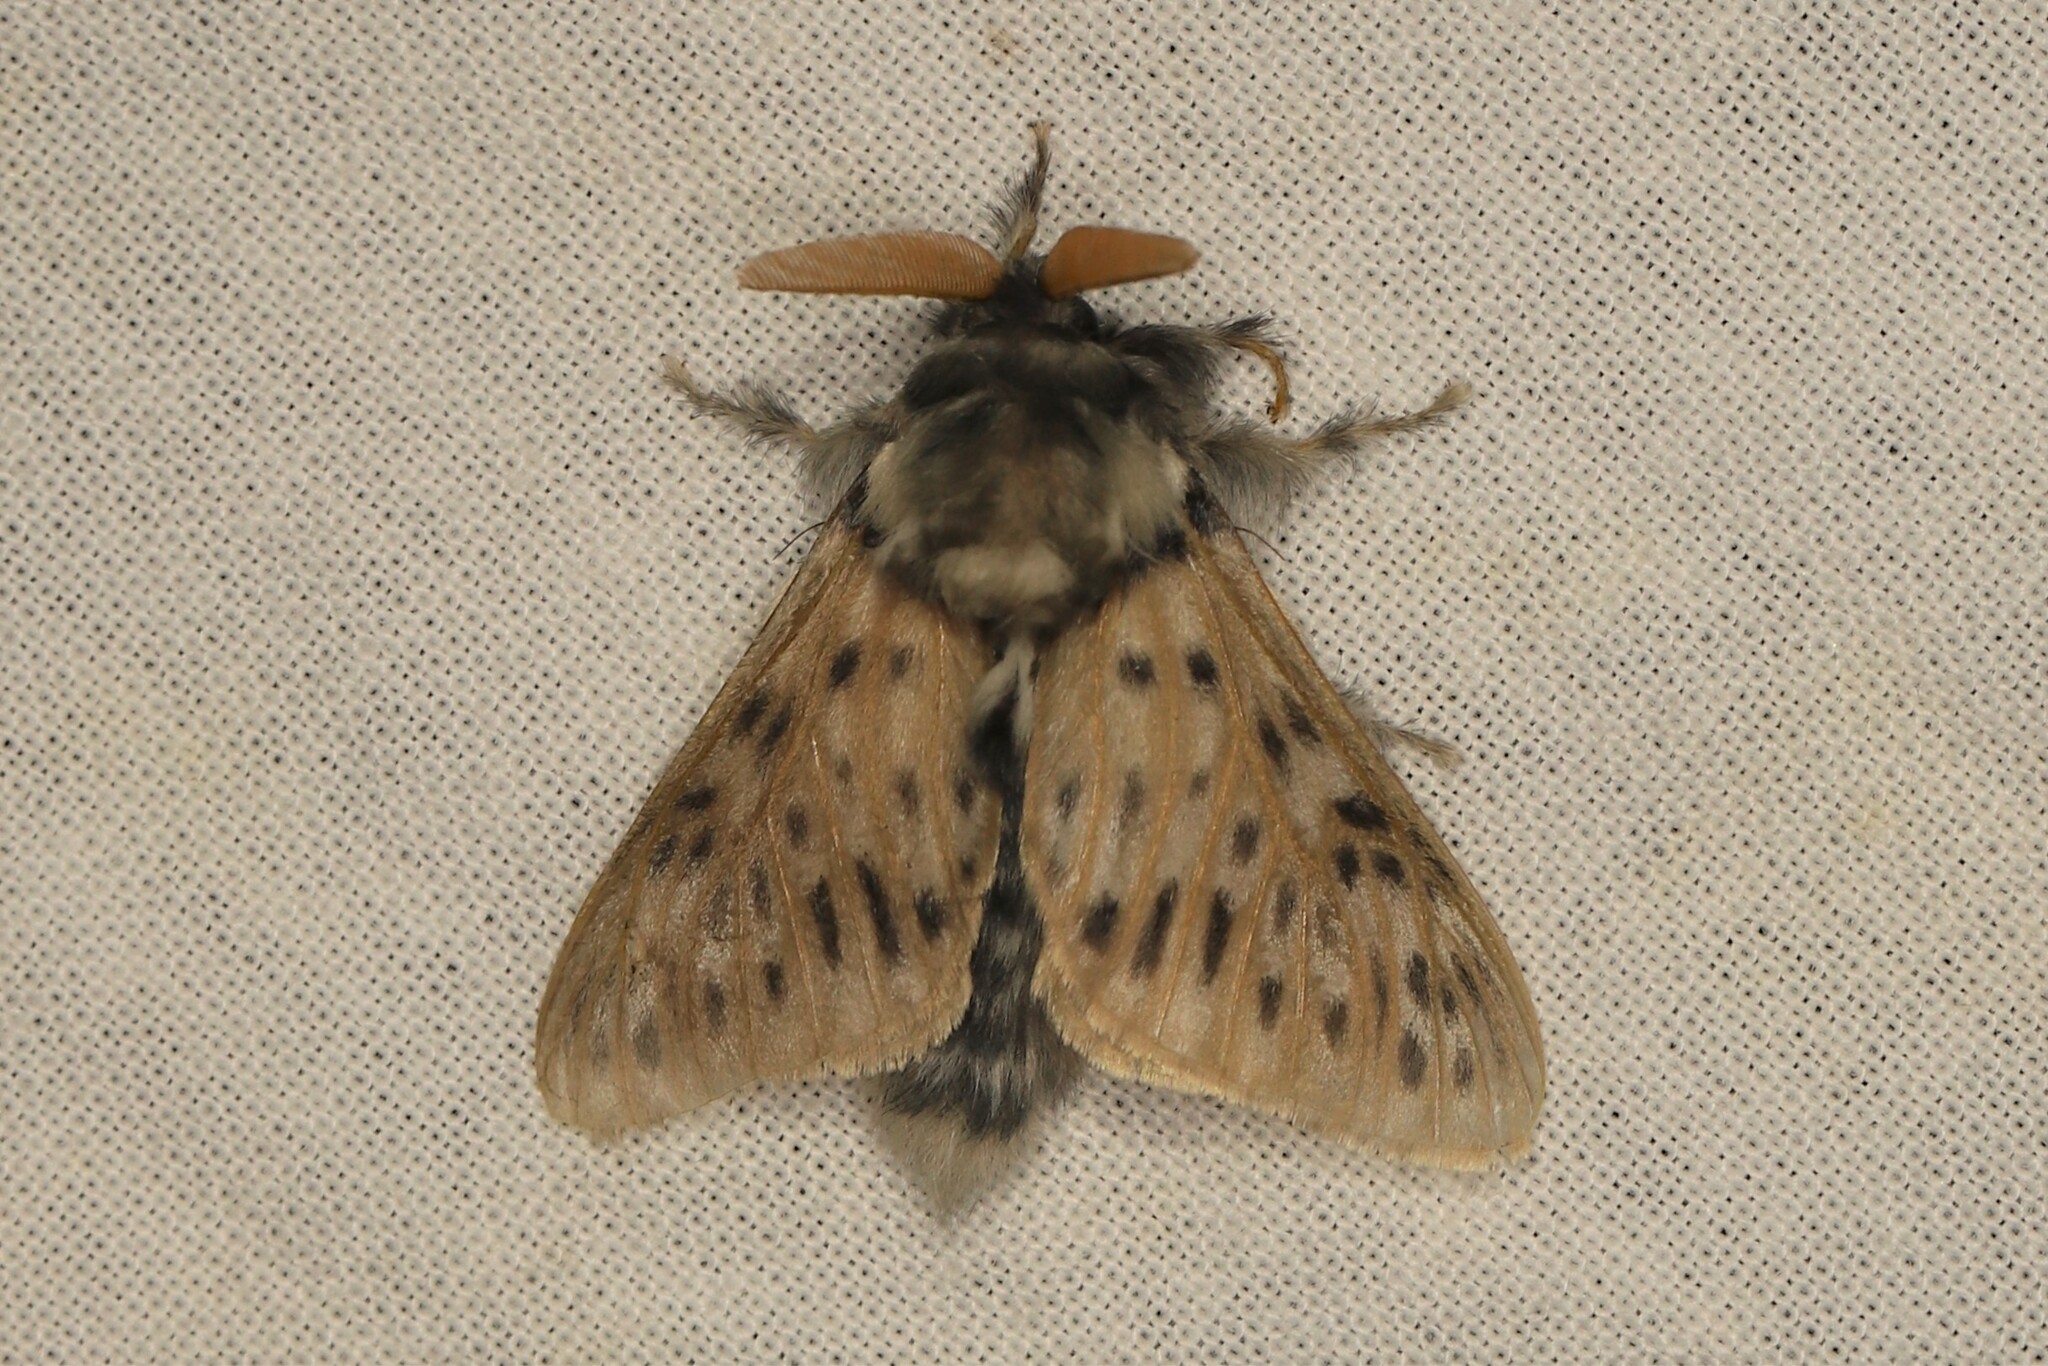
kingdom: Animalia
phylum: Arthropoda
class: Insecta
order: Lepidoptera
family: Megalopygidae
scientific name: Megalopygidae
